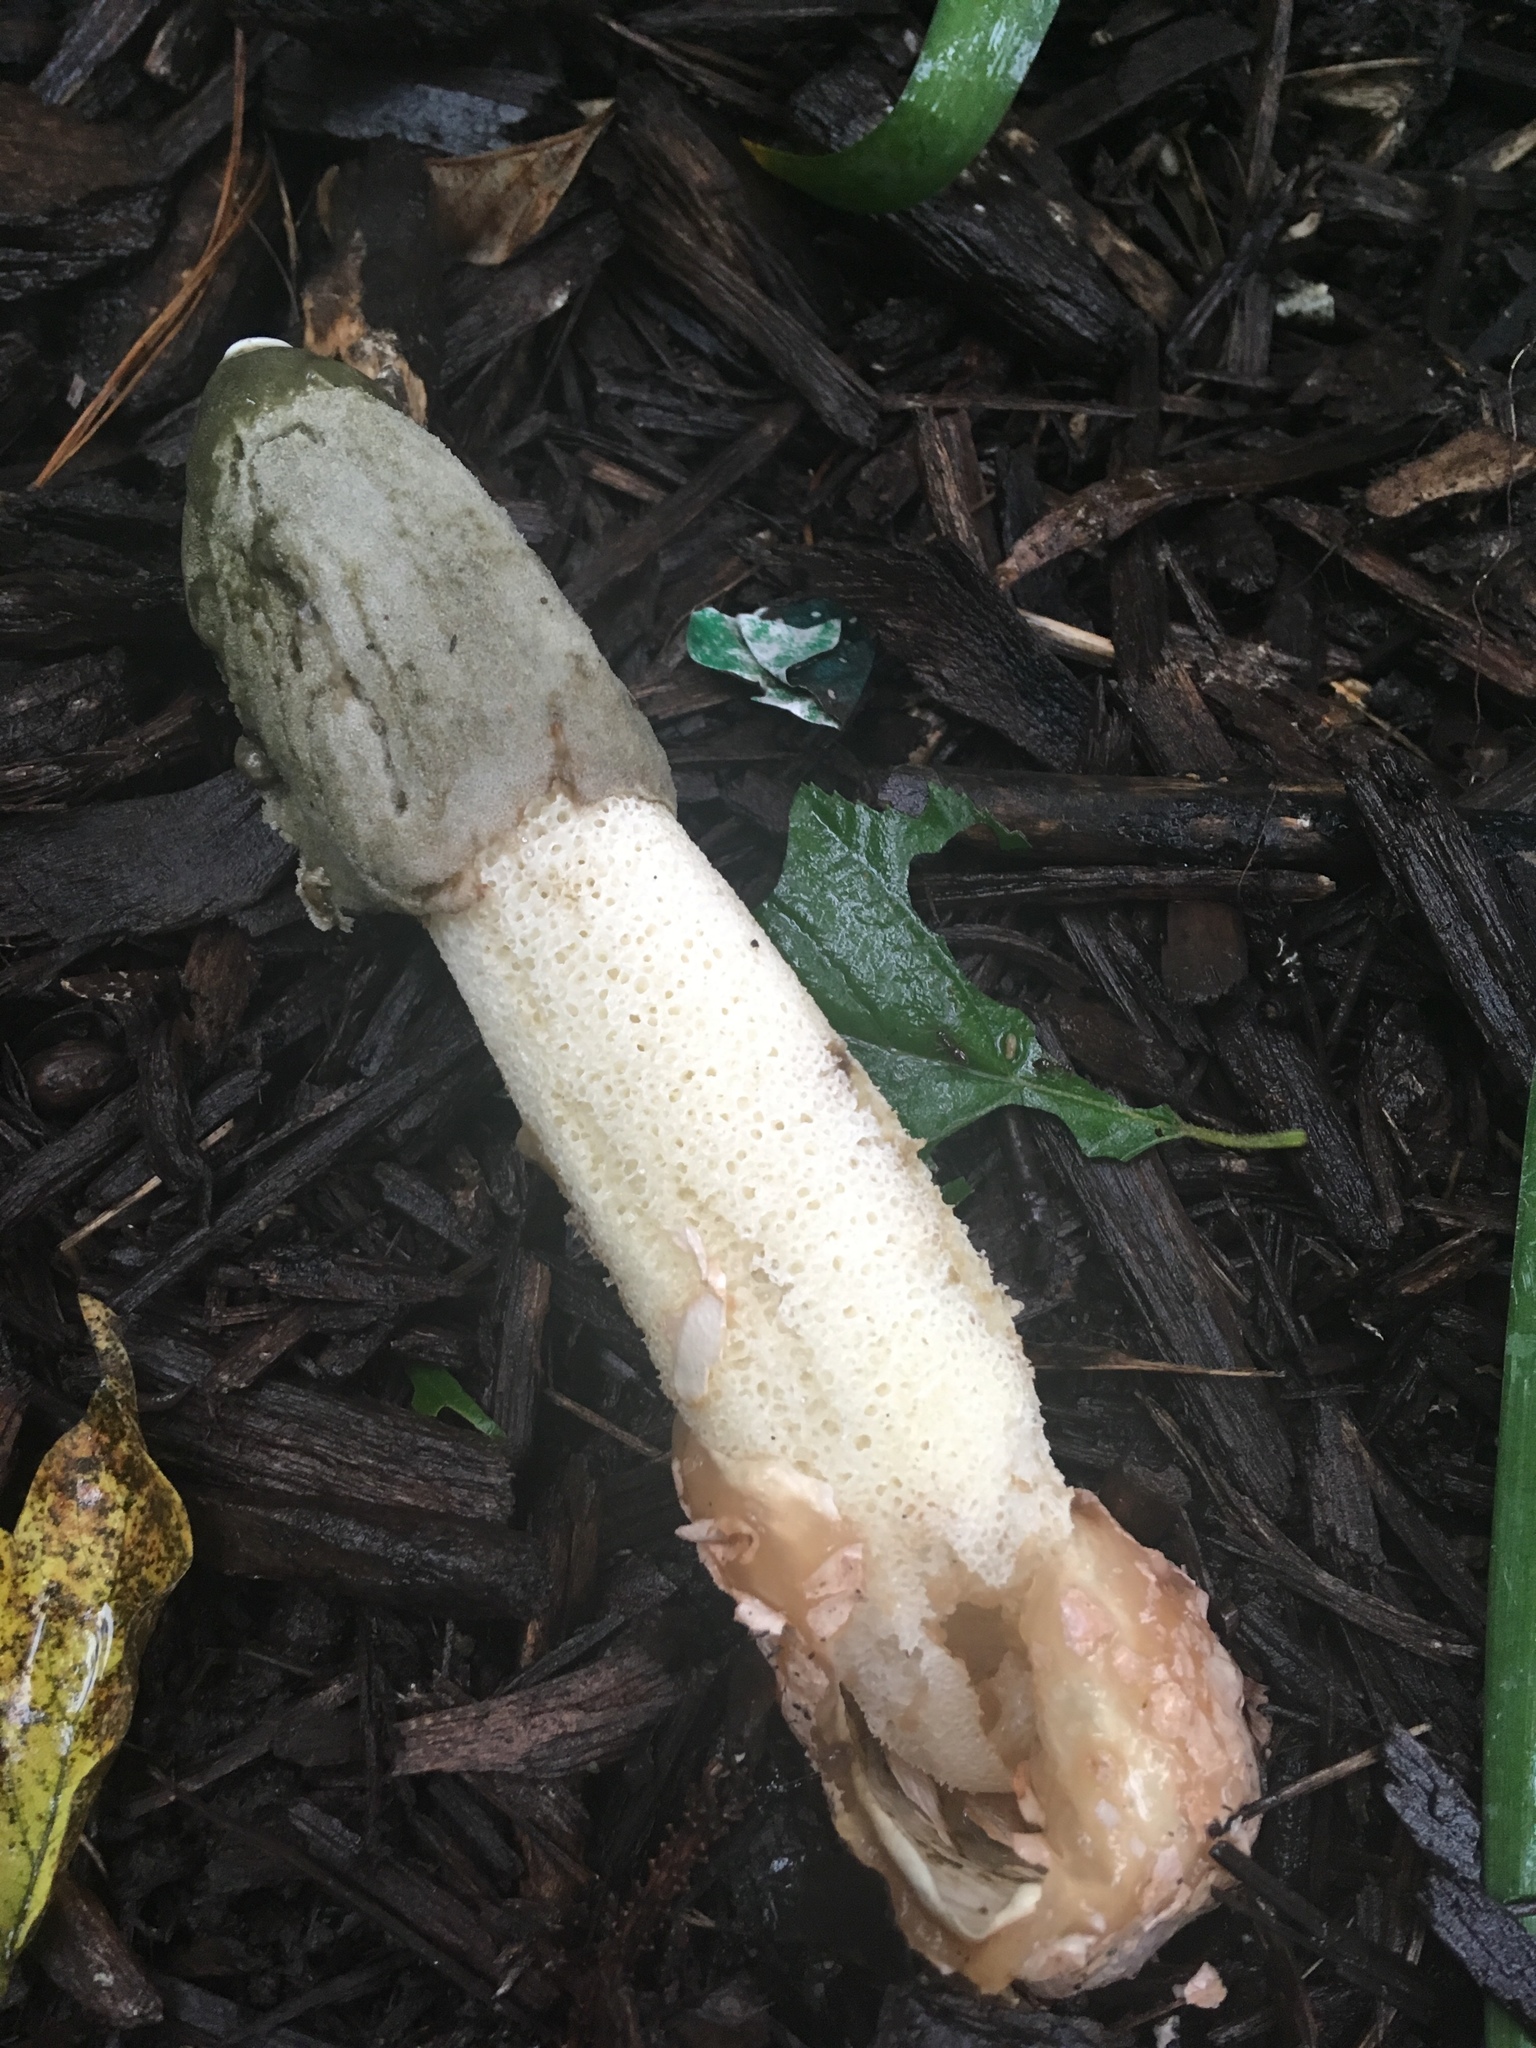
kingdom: Fungi
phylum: Basidiomycota
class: Agaricomycetes
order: Phallales
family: Phallaceae
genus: Phallus
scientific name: Phallus ravenelii
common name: Ravenel's stinkhorn
